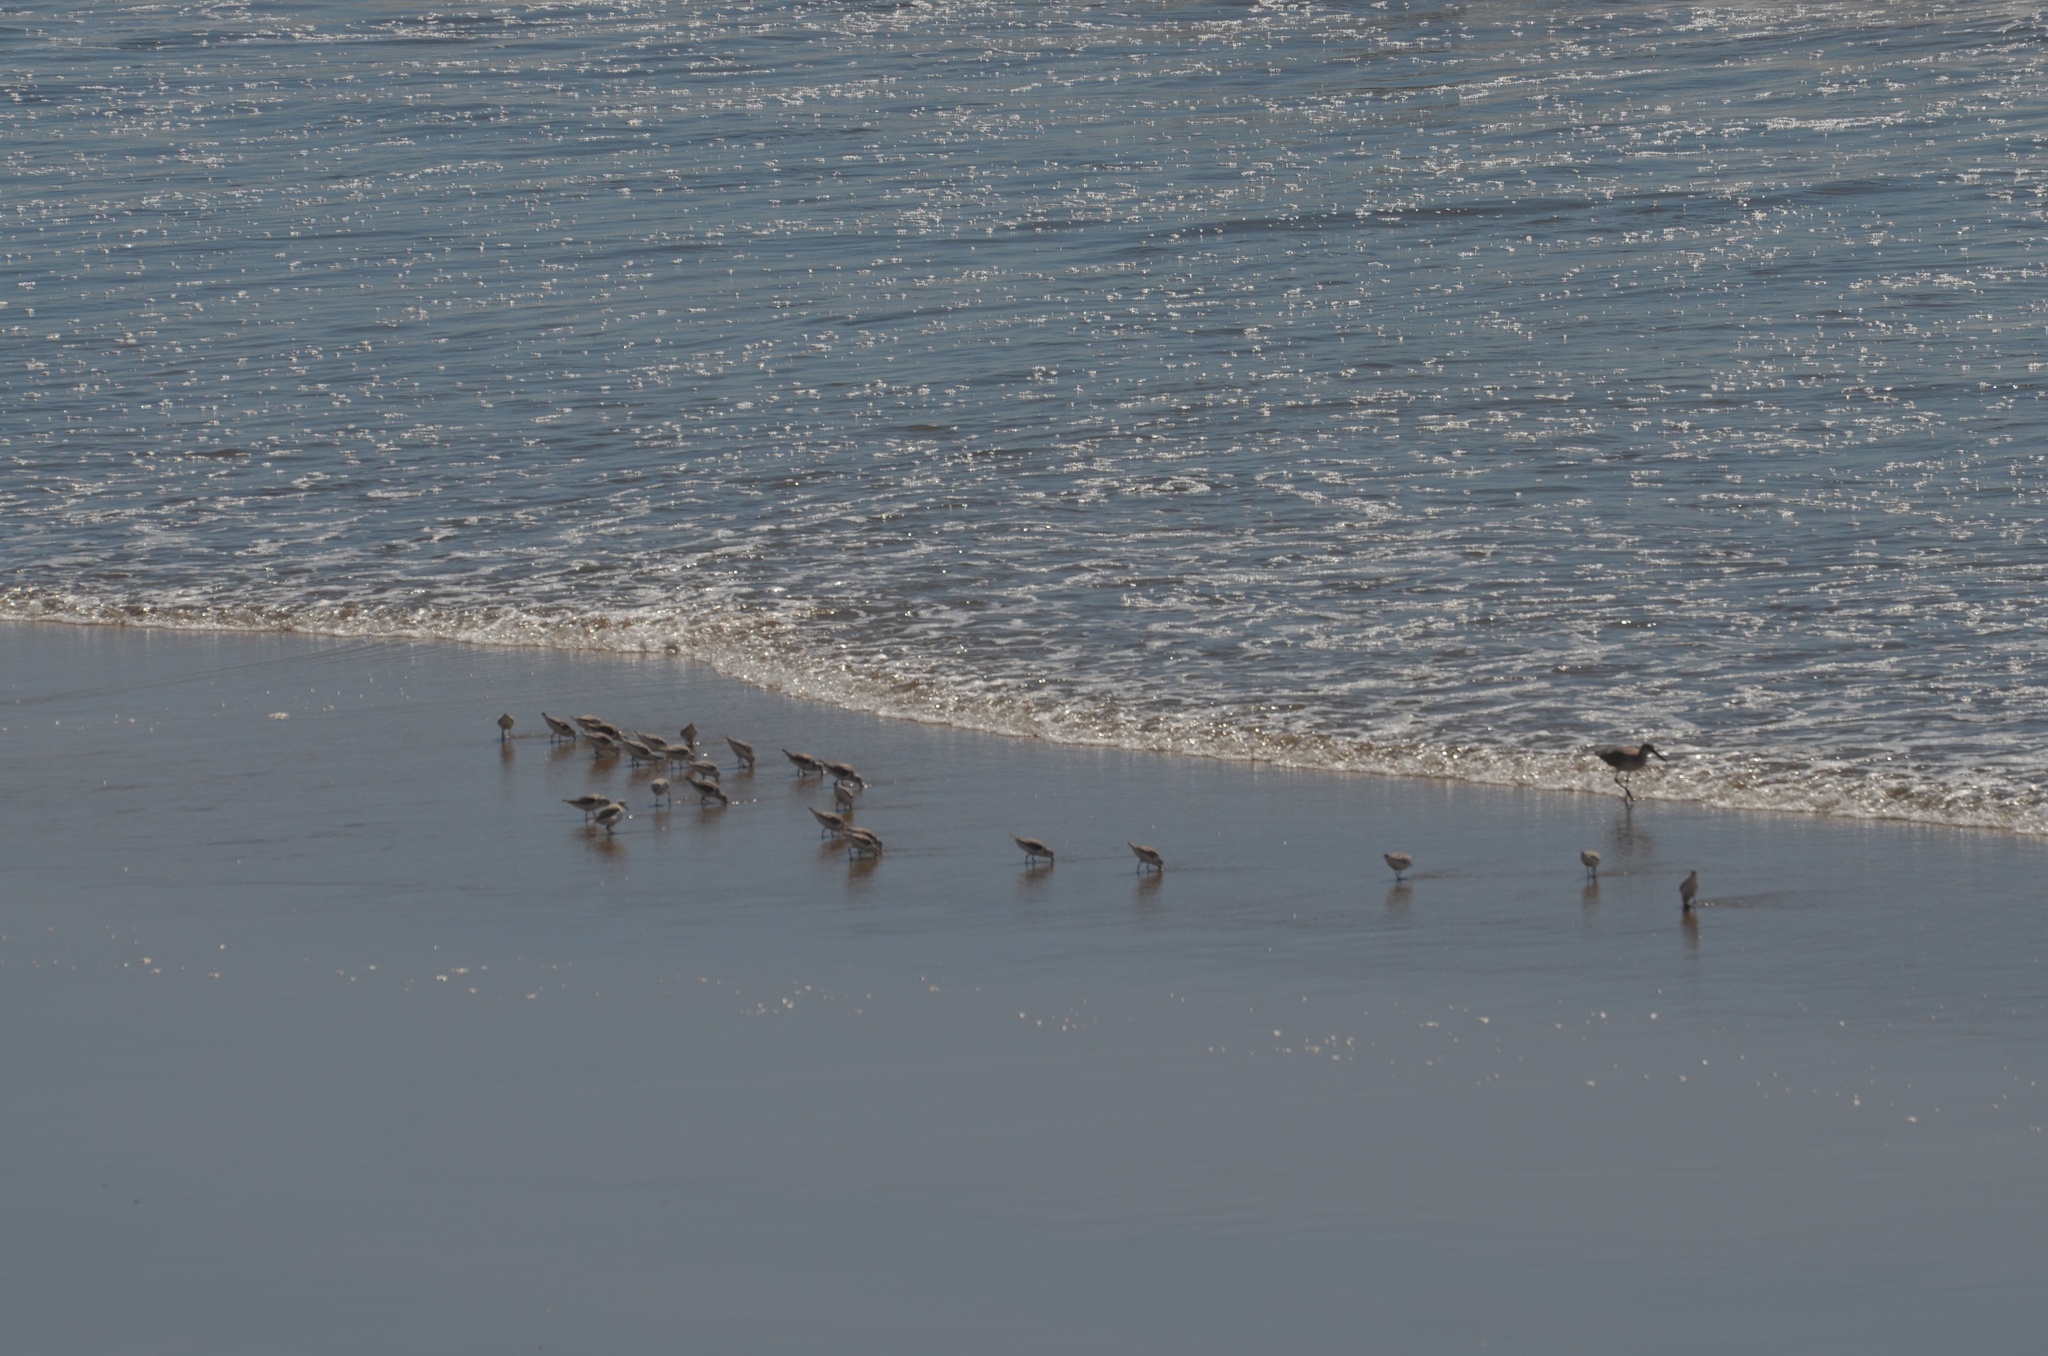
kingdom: Animalia
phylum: Chordata
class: Aves
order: Charadriiformes
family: Scolopacidae
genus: Calidris
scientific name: Calidris alba
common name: Sanderling
